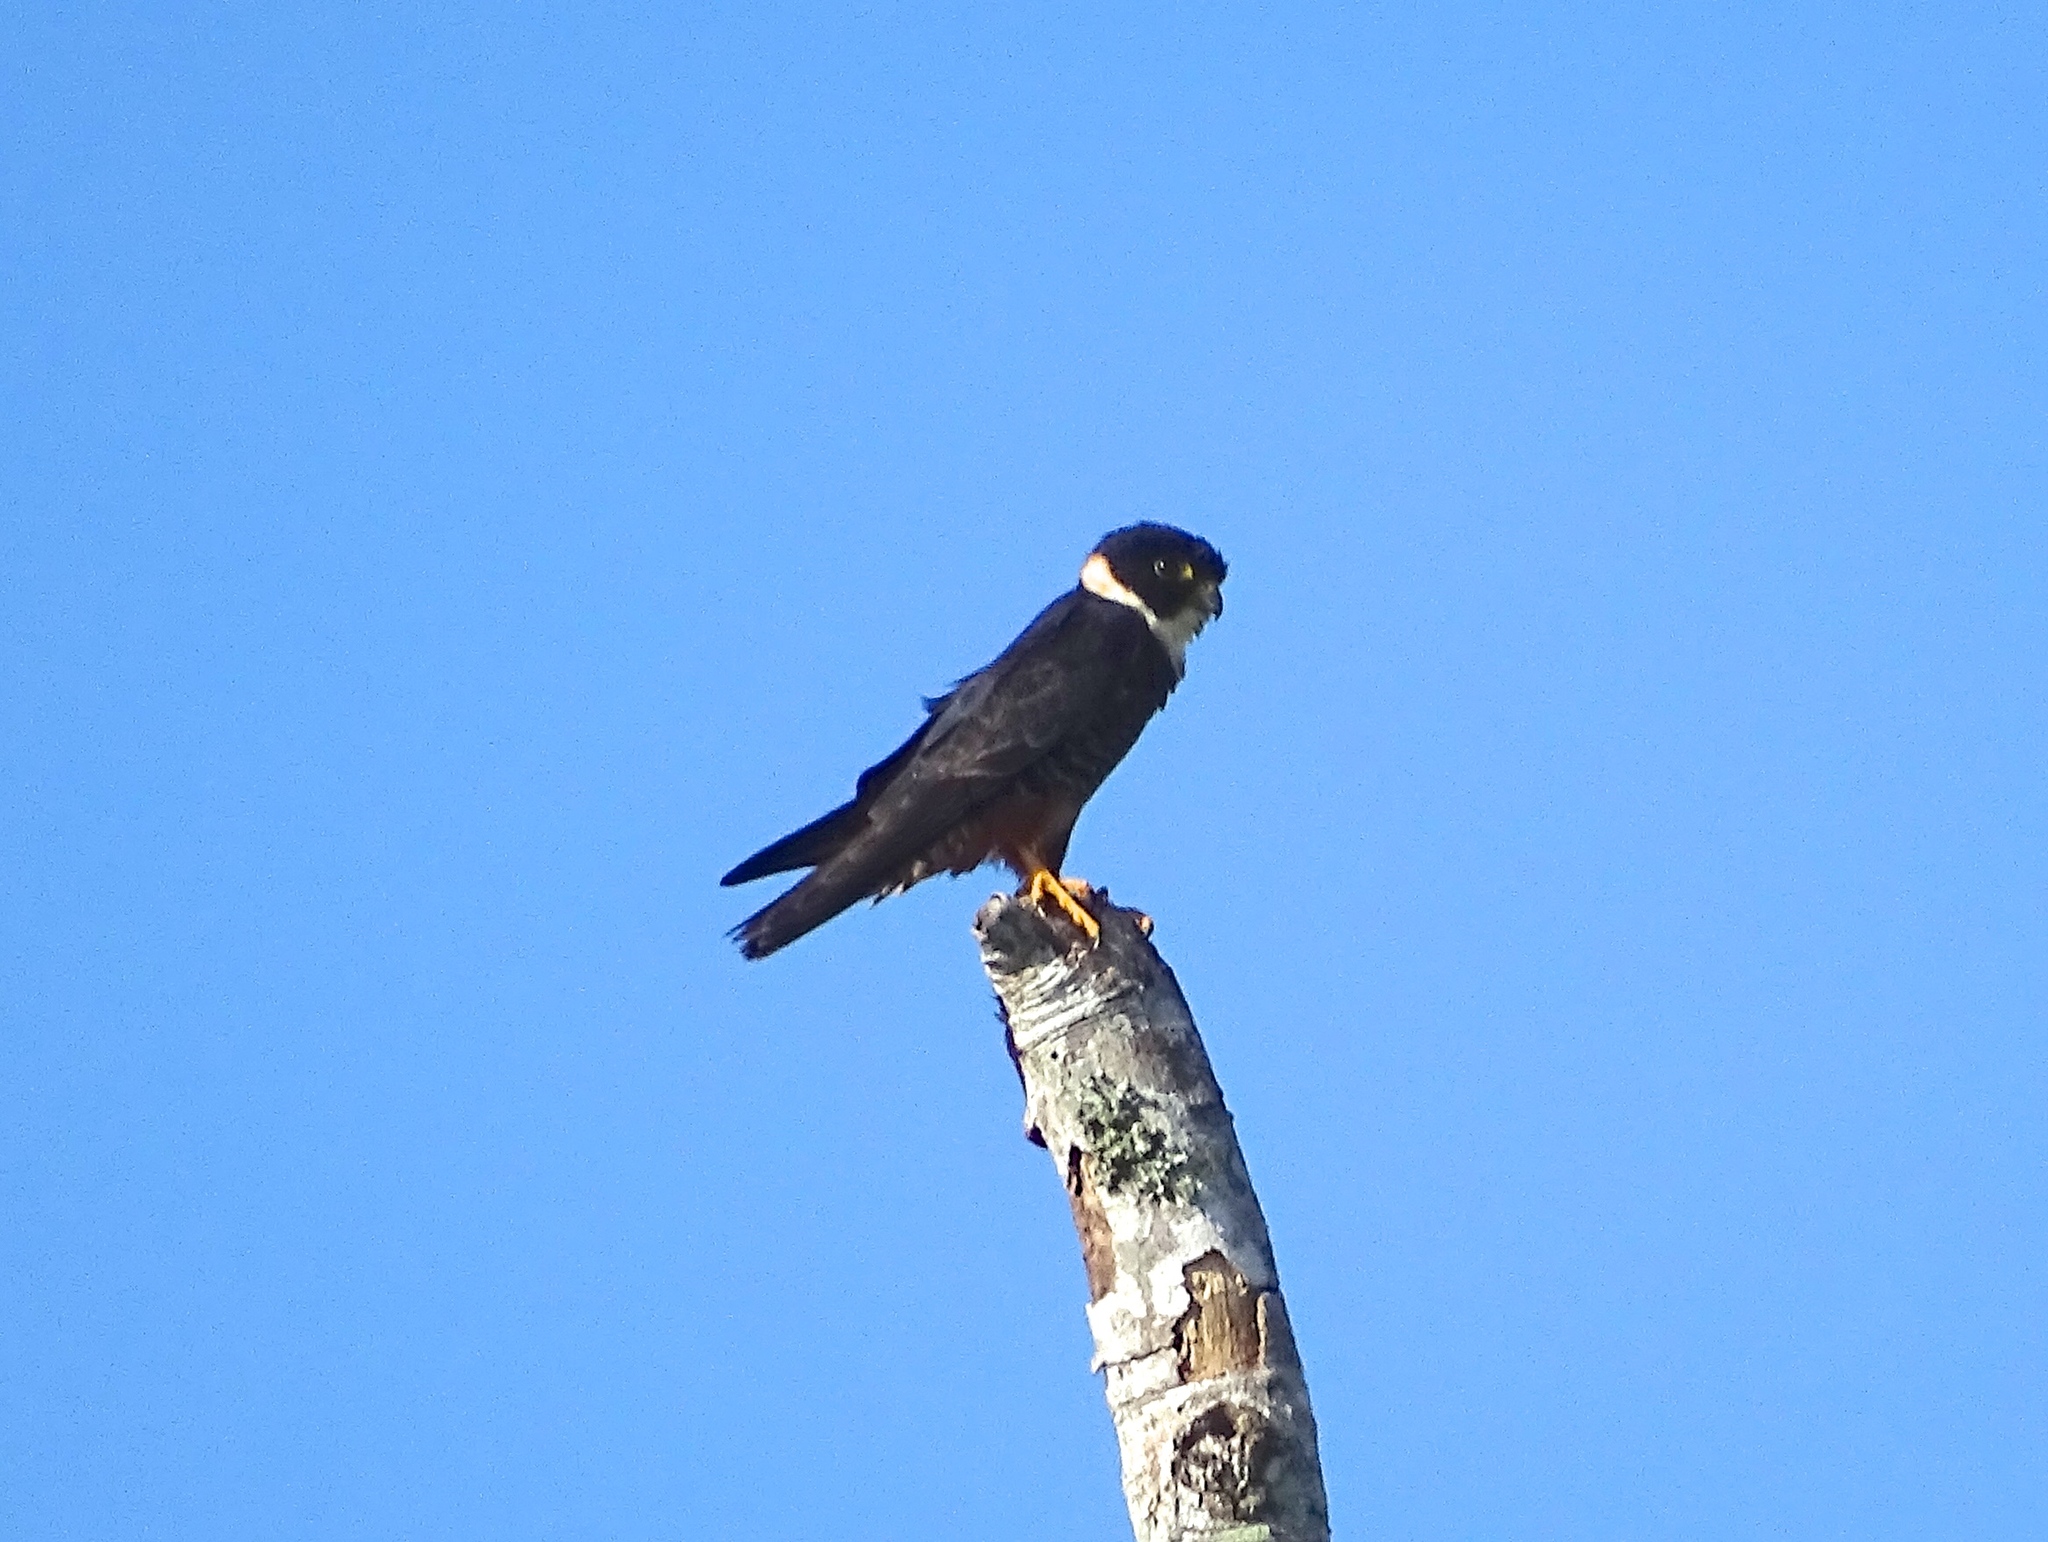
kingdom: Animalia
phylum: Chordata
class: Aves
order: Falconiformes
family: Falconidae
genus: Falco
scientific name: Falco rufigularis
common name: Bat falcon
